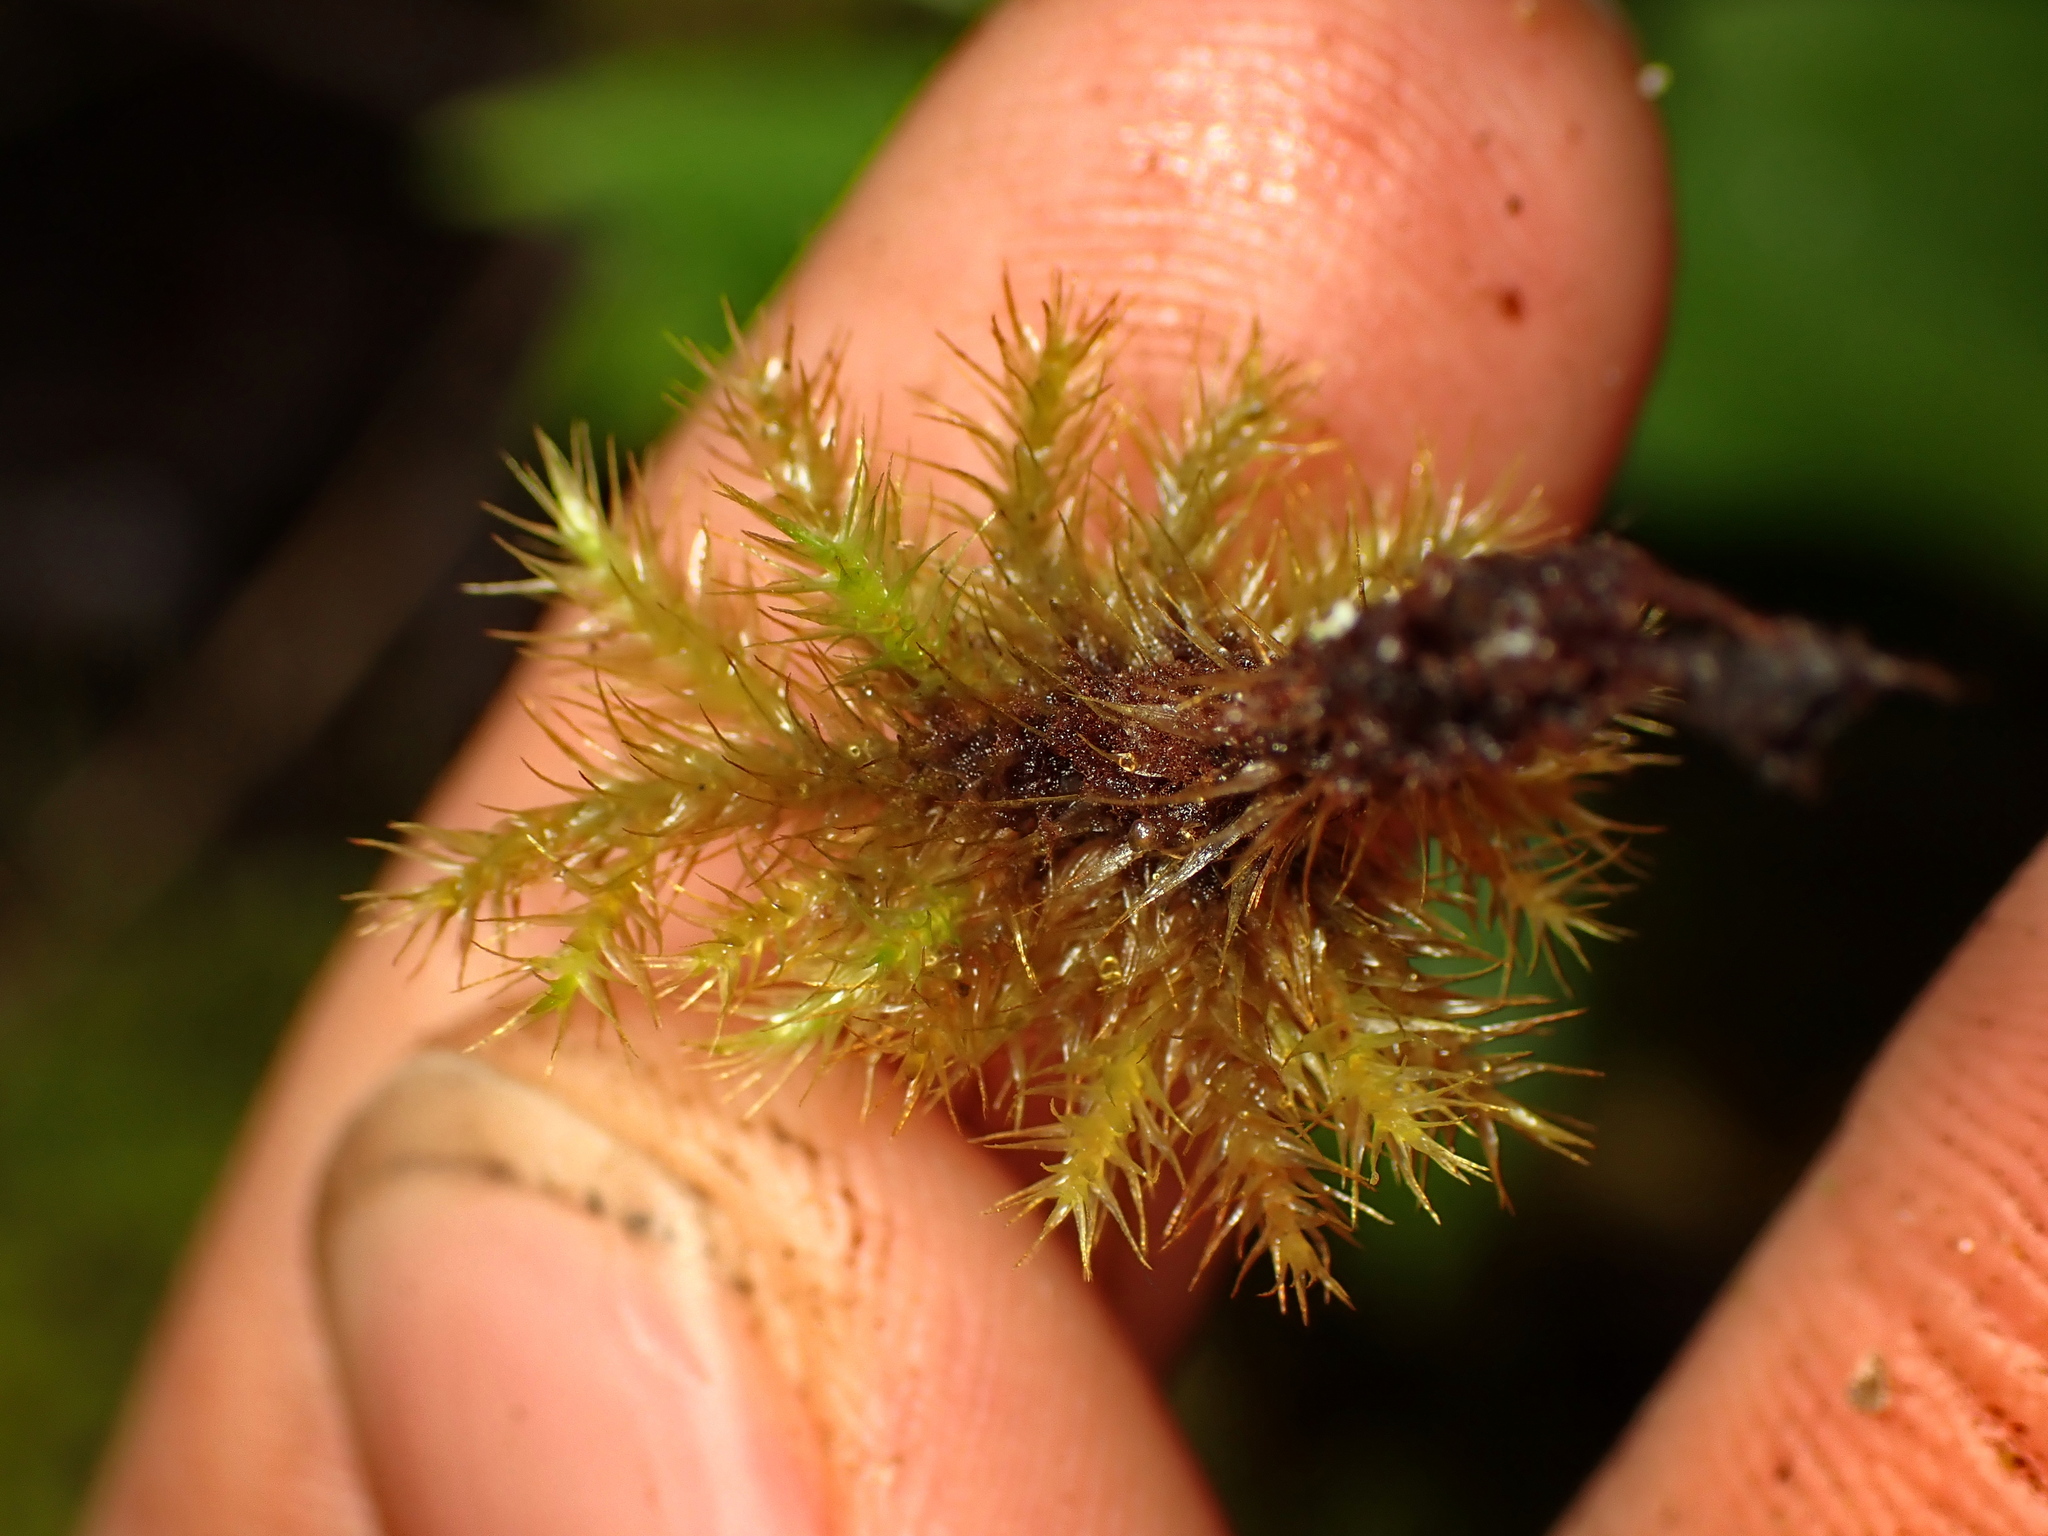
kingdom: Plantae
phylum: Bryophyta
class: Bryopsida
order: Hypnodendrales
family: Spiridentaceae
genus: Mniodendron
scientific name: Mniodendron colensoi
